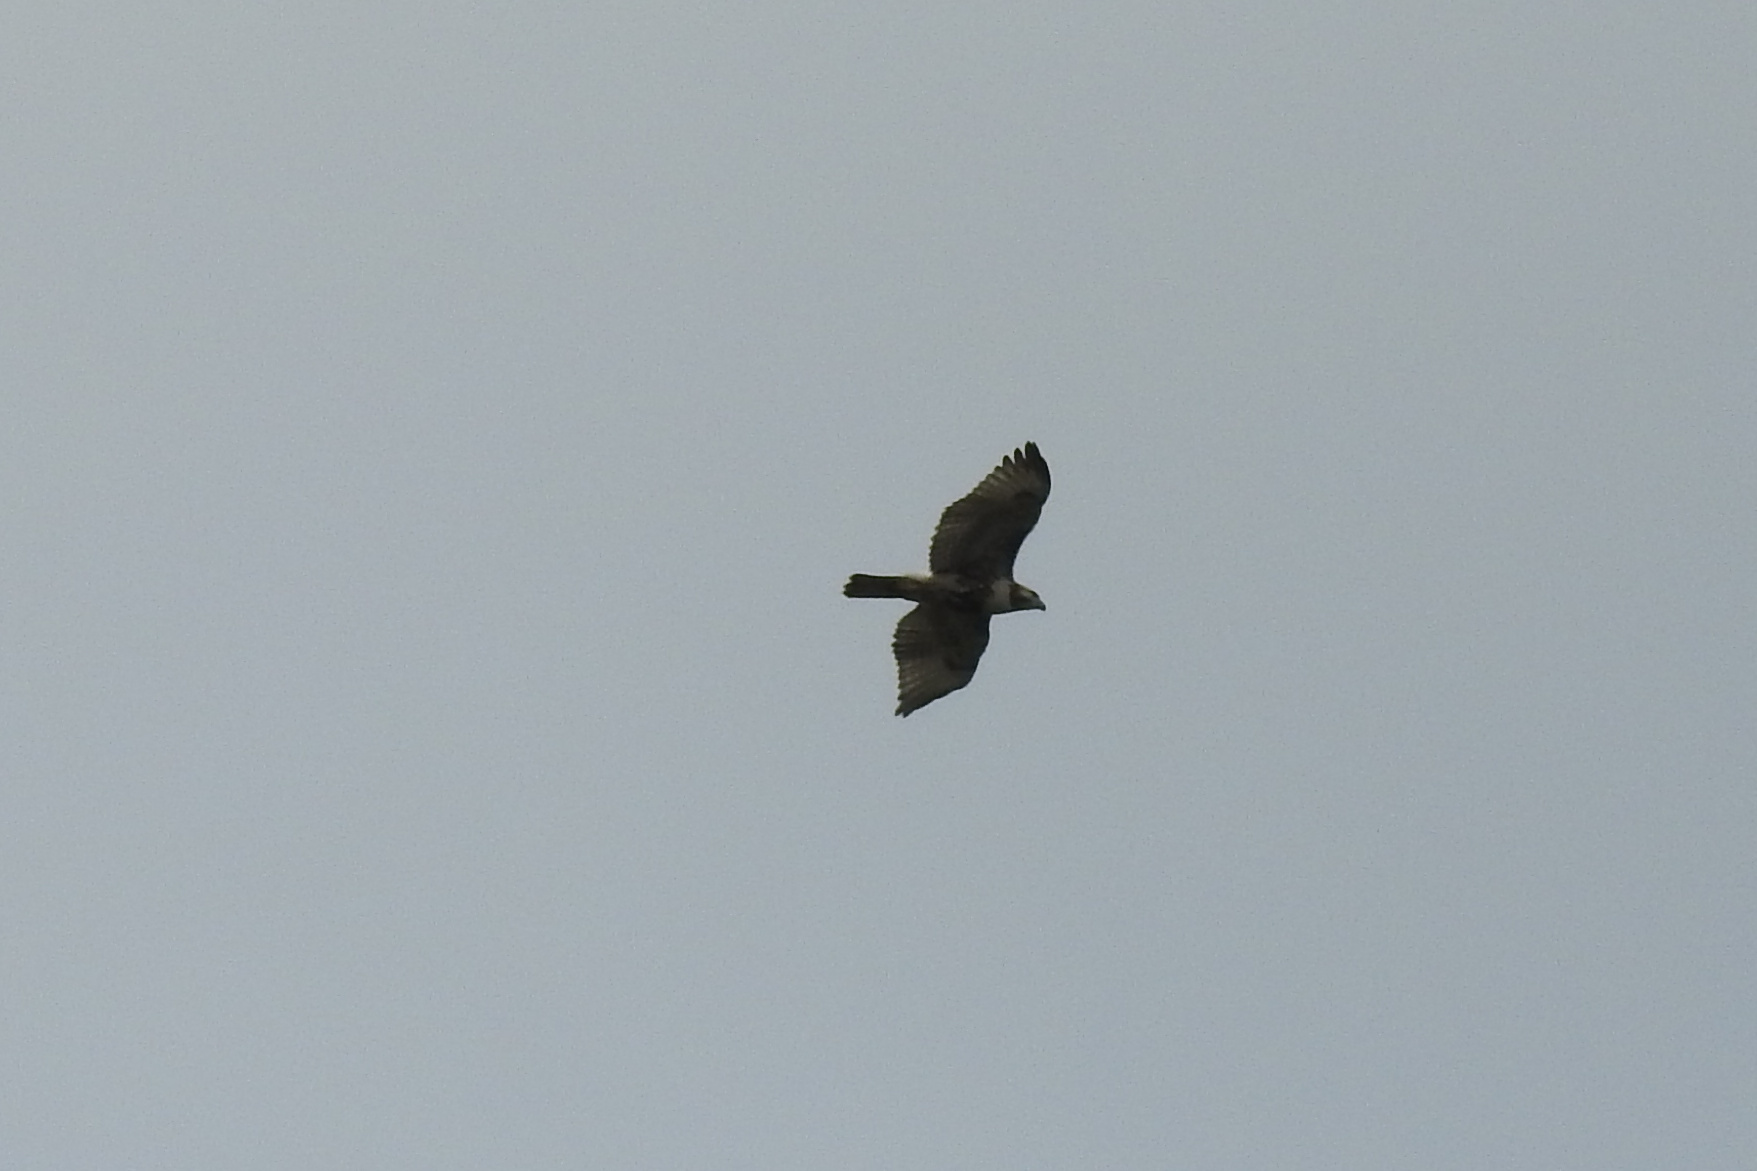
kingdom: Animalia
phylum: Chordata
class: Aves
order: Accipitriformes
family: Accipitridae
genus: Buteo
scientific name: Buteo jamaicensis
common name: Red-tailed hawk
